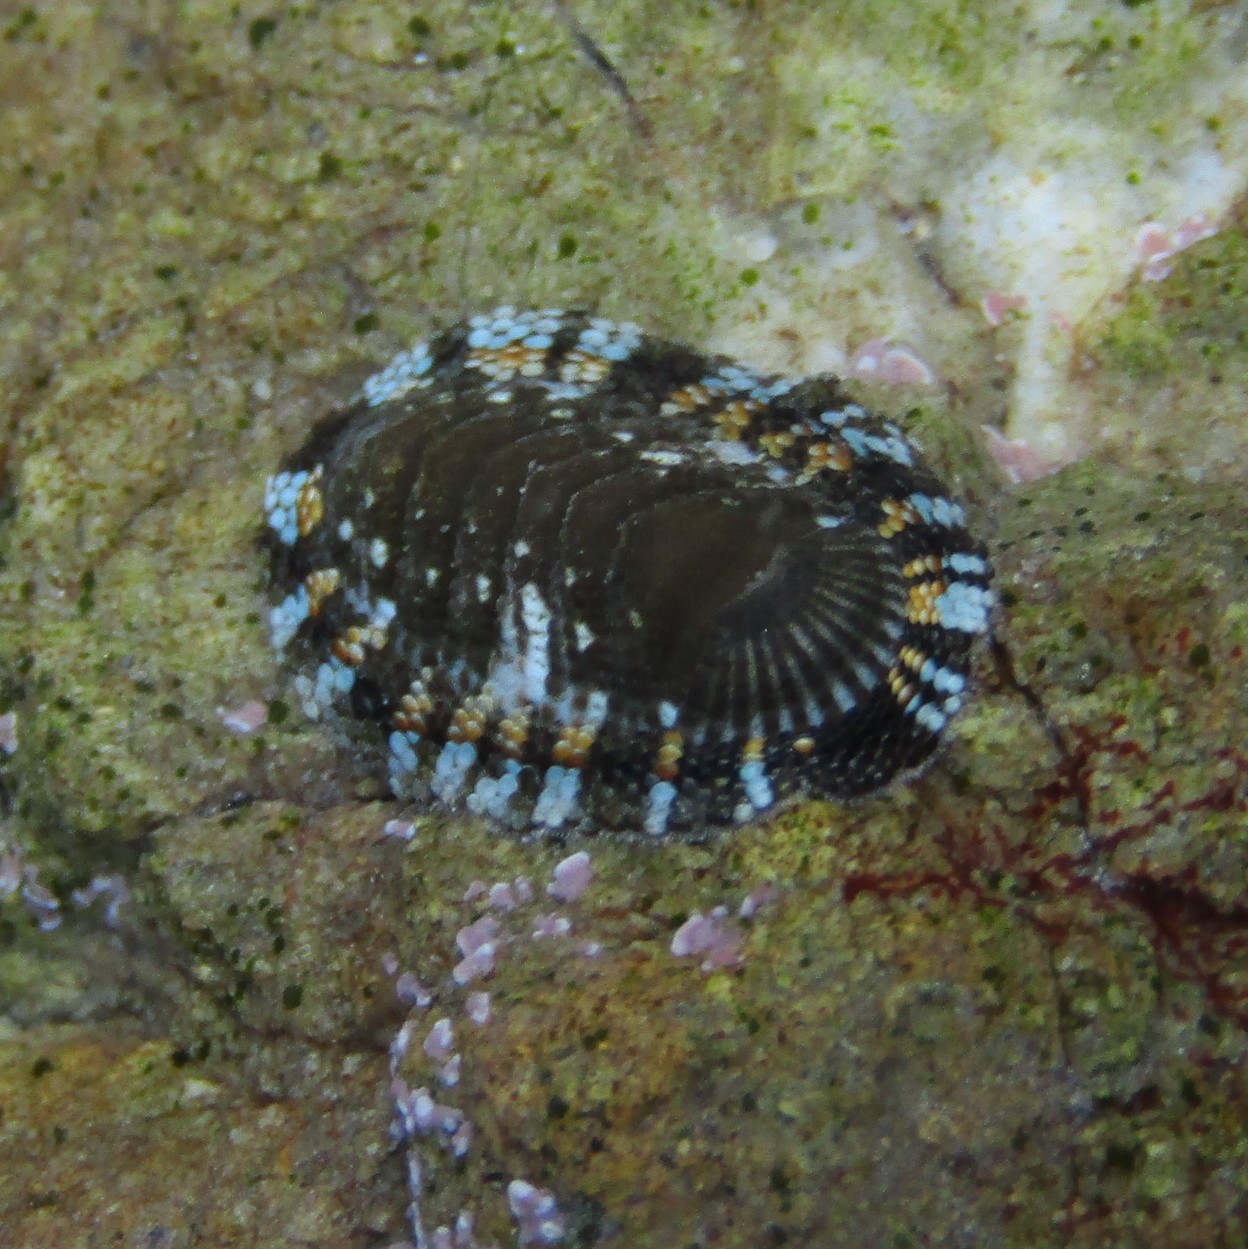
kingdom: Animalia
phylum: Mollusca
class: Polyplacophora
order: Chitonida
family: Chitonidae
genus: Sypharochiton
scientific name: Sypharochiton sinclairi
